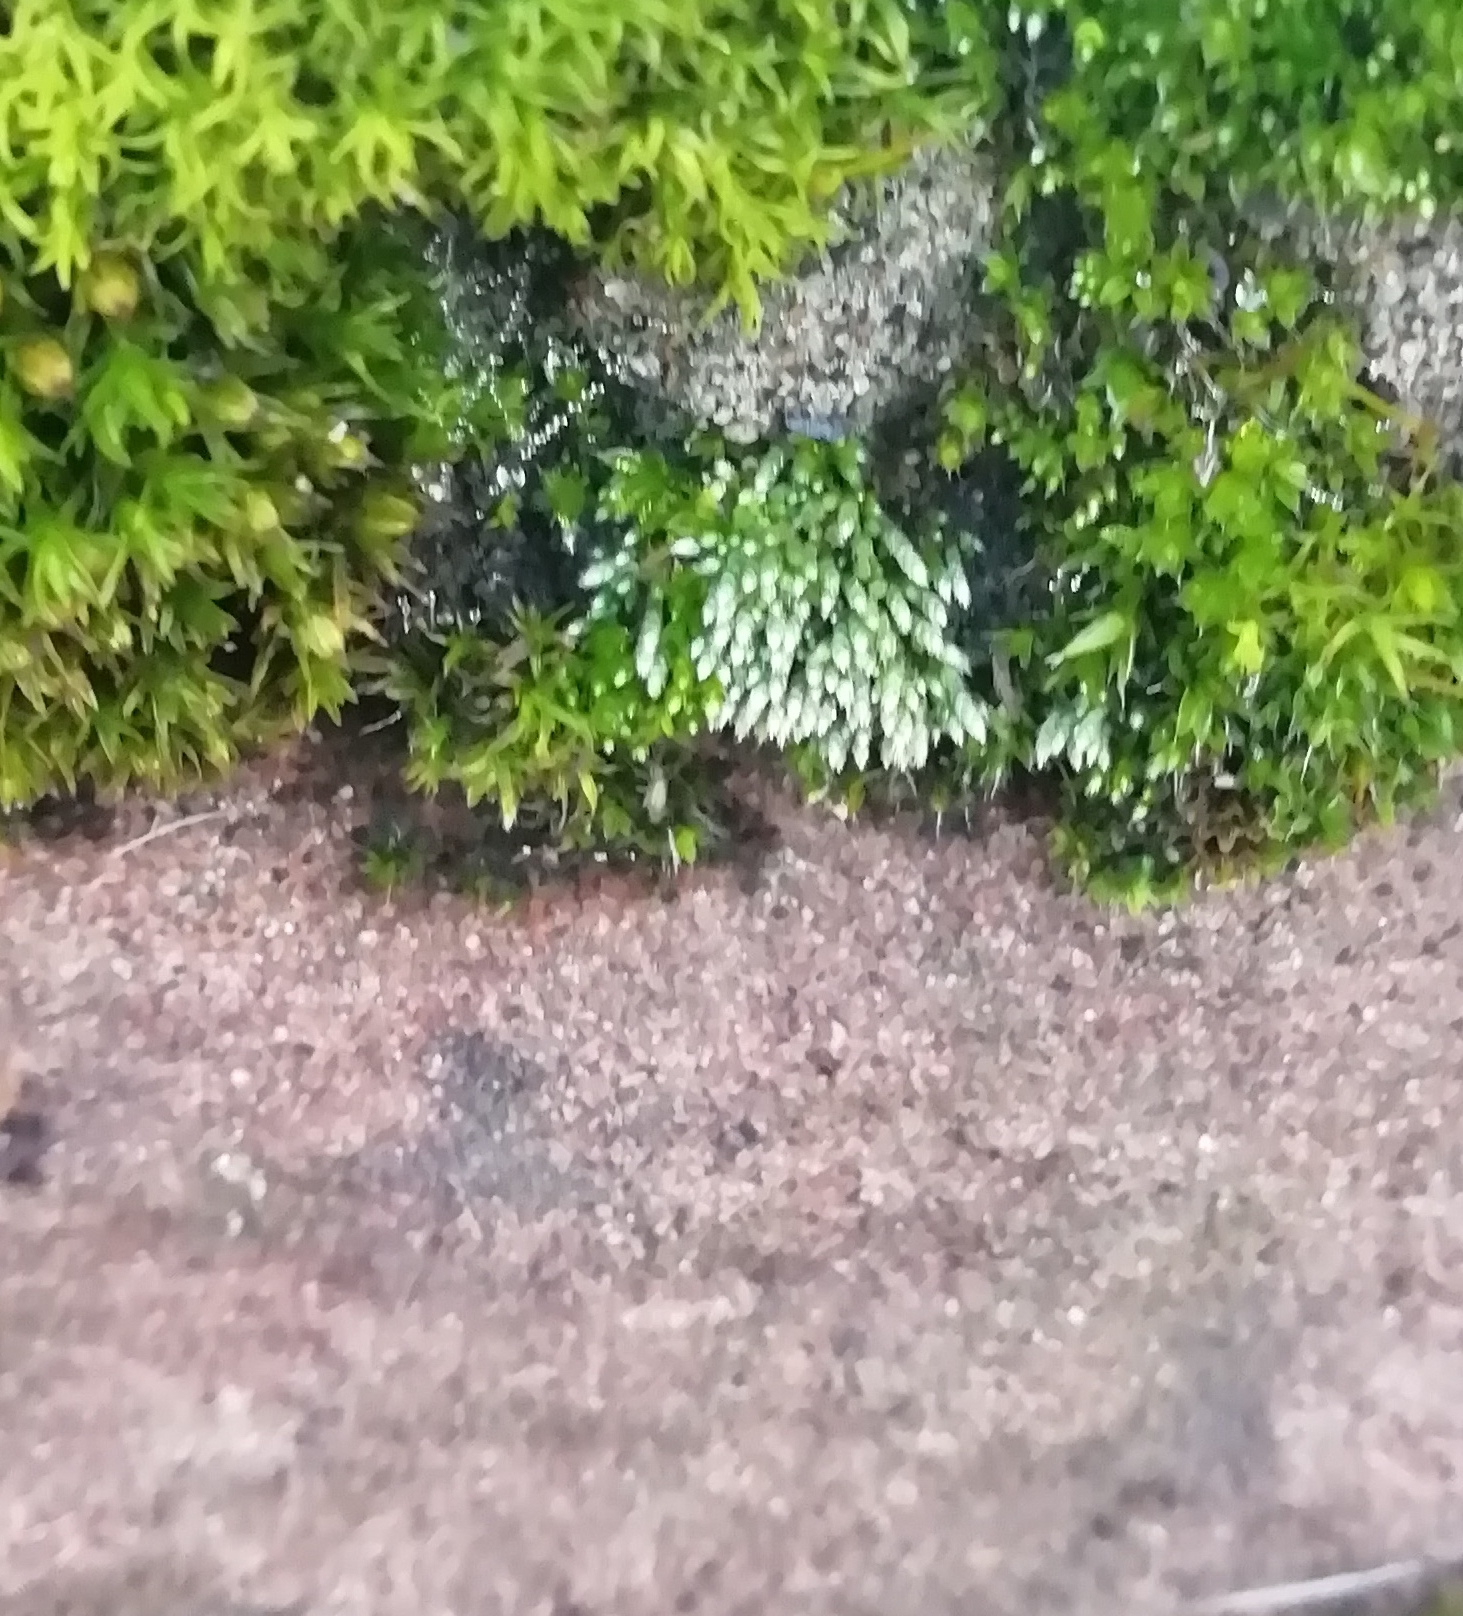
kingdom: Plantae
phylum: Bryophyta
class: Bryopsida
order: Bryales
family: Bryaceae
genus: Bryum
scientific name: Bryum argenteum
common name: Silver-moss
